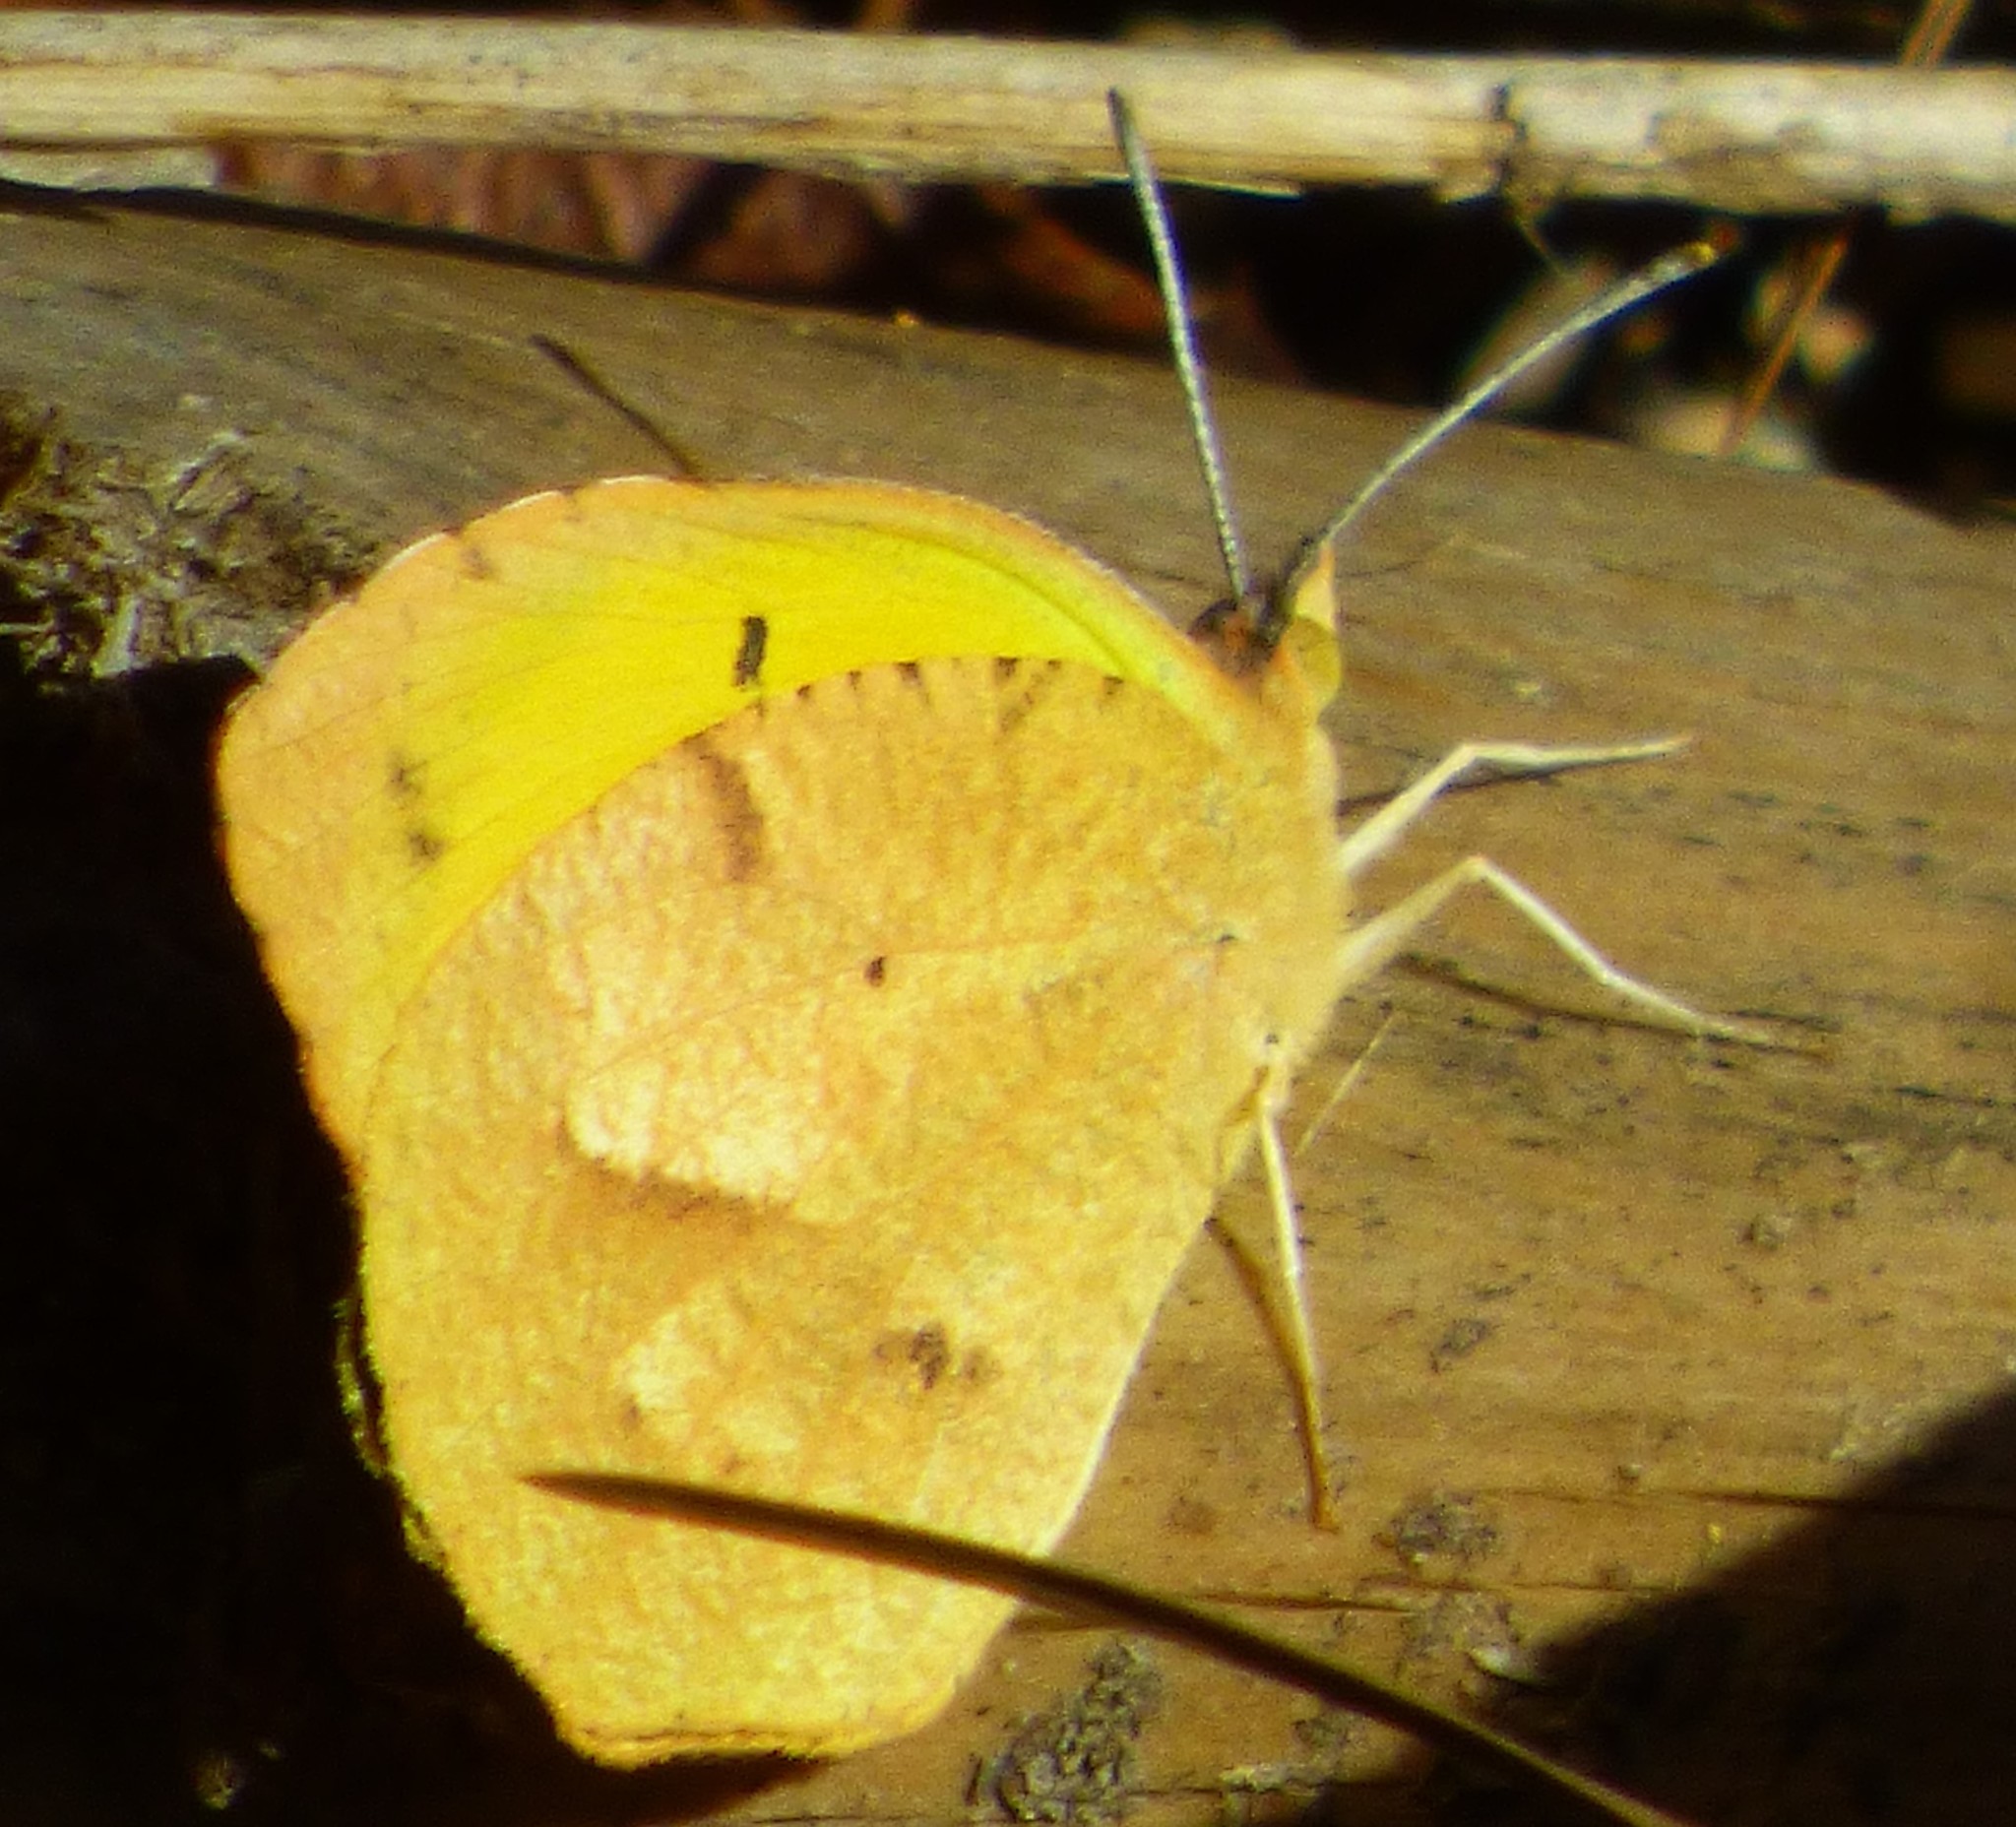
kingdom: Animalia
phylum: Arthropoda
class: Insecta
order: Lepidoptera
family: Pieridae
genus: Abaeis
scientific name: Abaeis nicippe
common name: Sleepy orange
